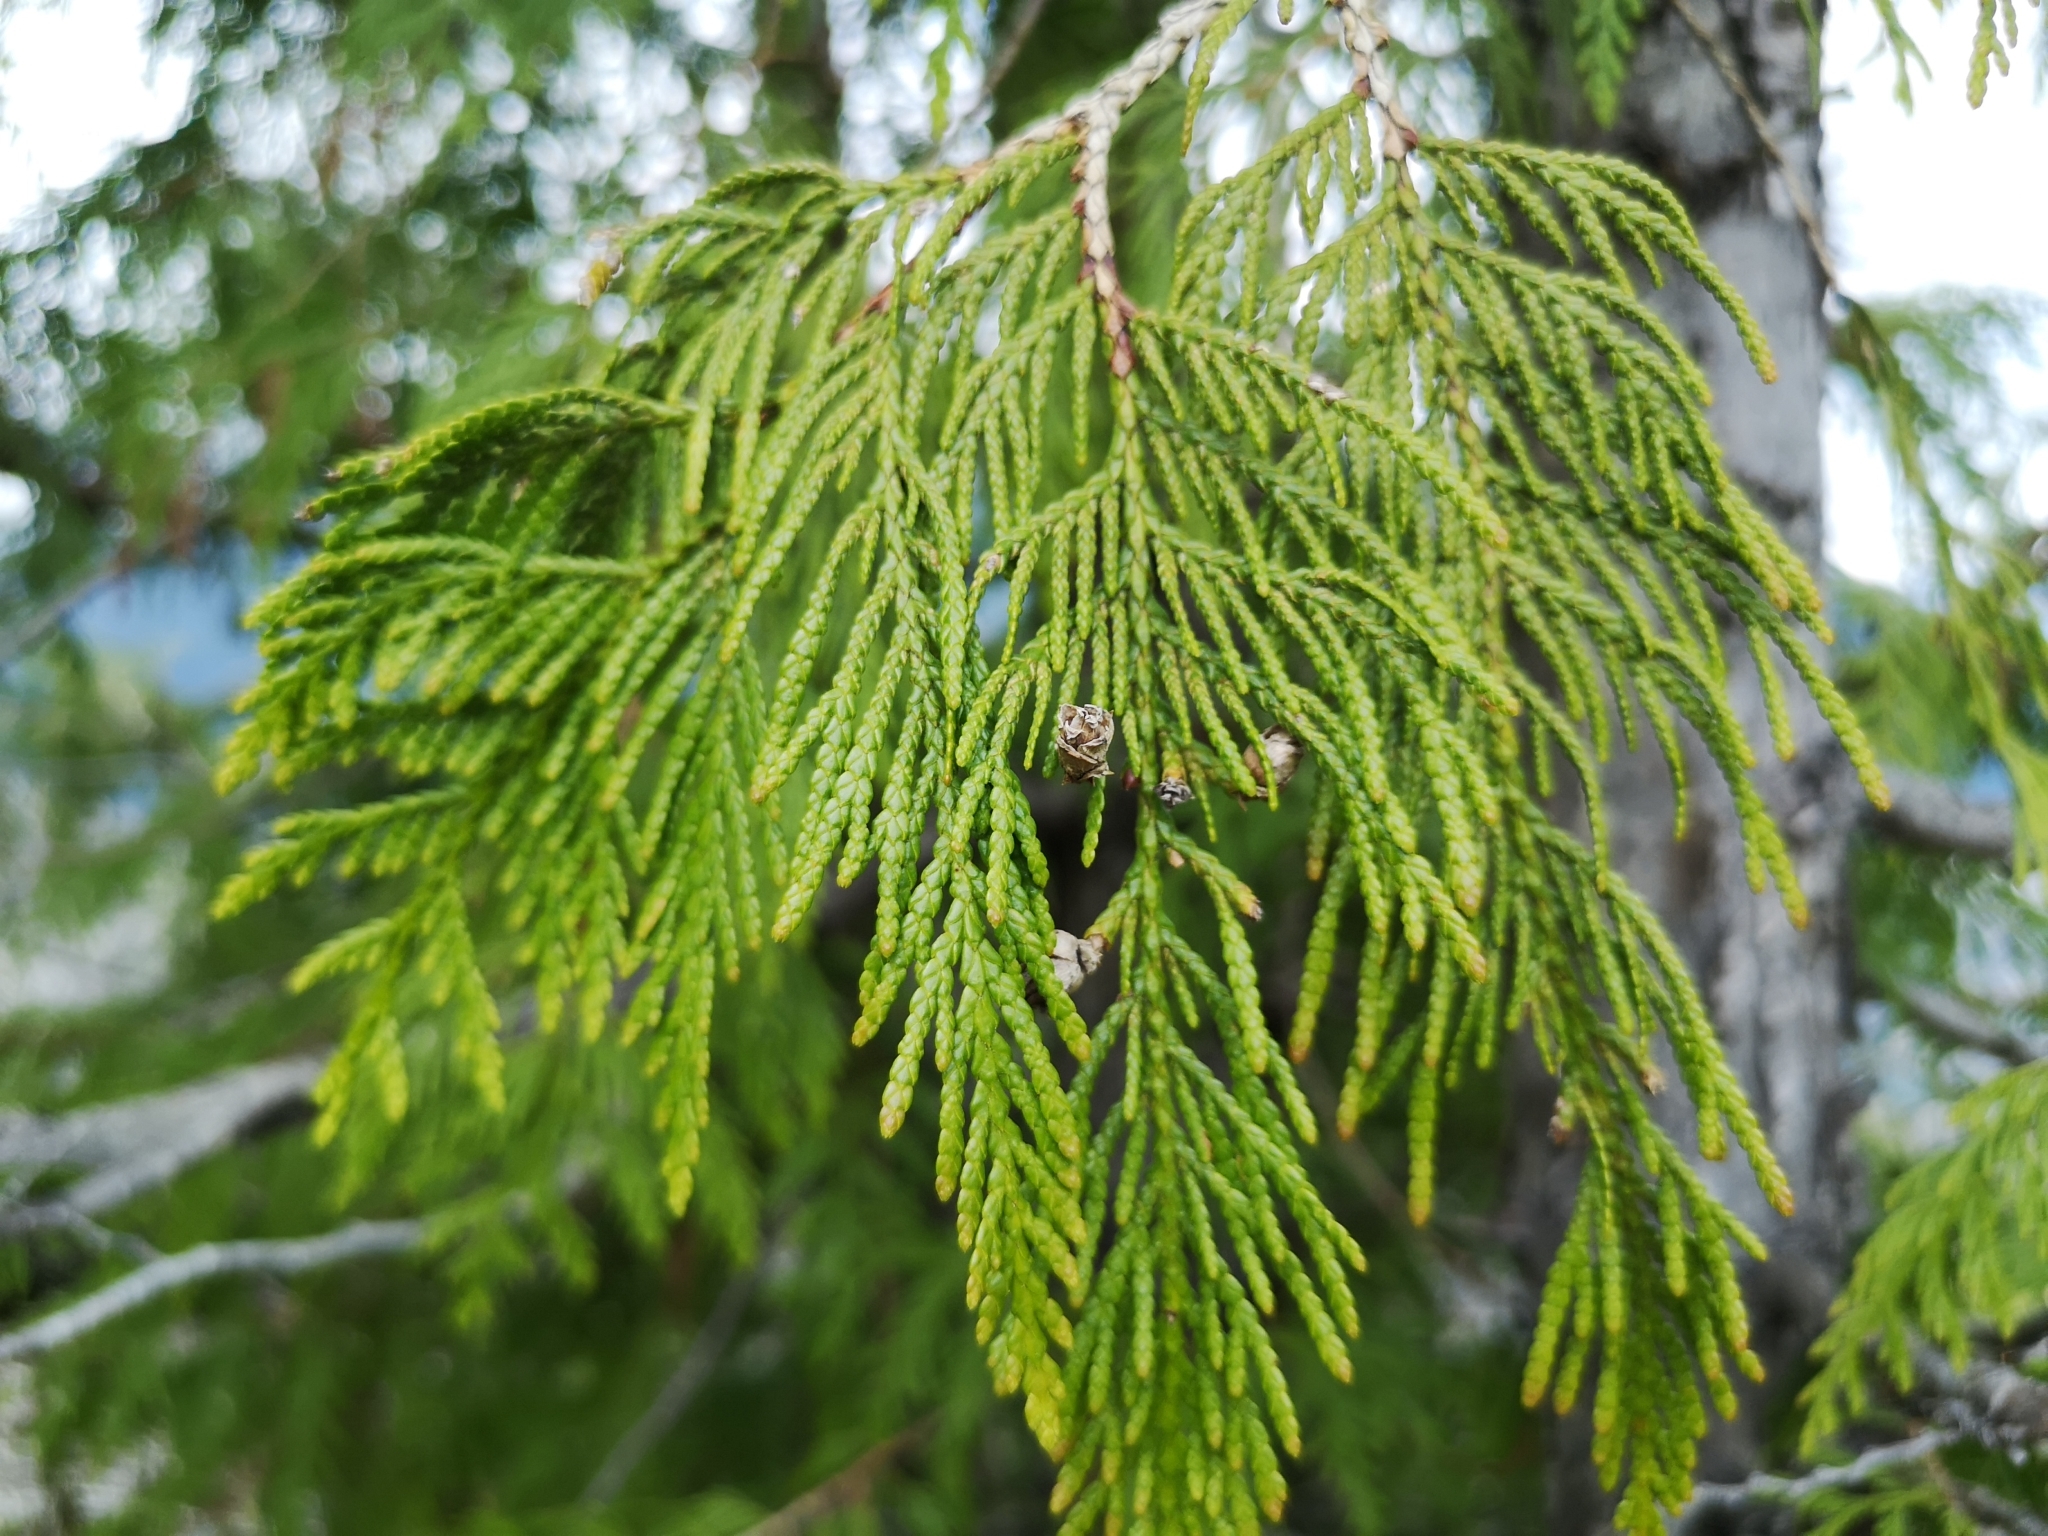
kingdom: Plantae
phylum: Tracheophyta
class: Pinopsida
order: Pinales
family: Cupressaceae
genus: Thuja
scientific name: Thuja plicata
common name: Western red-cedar
